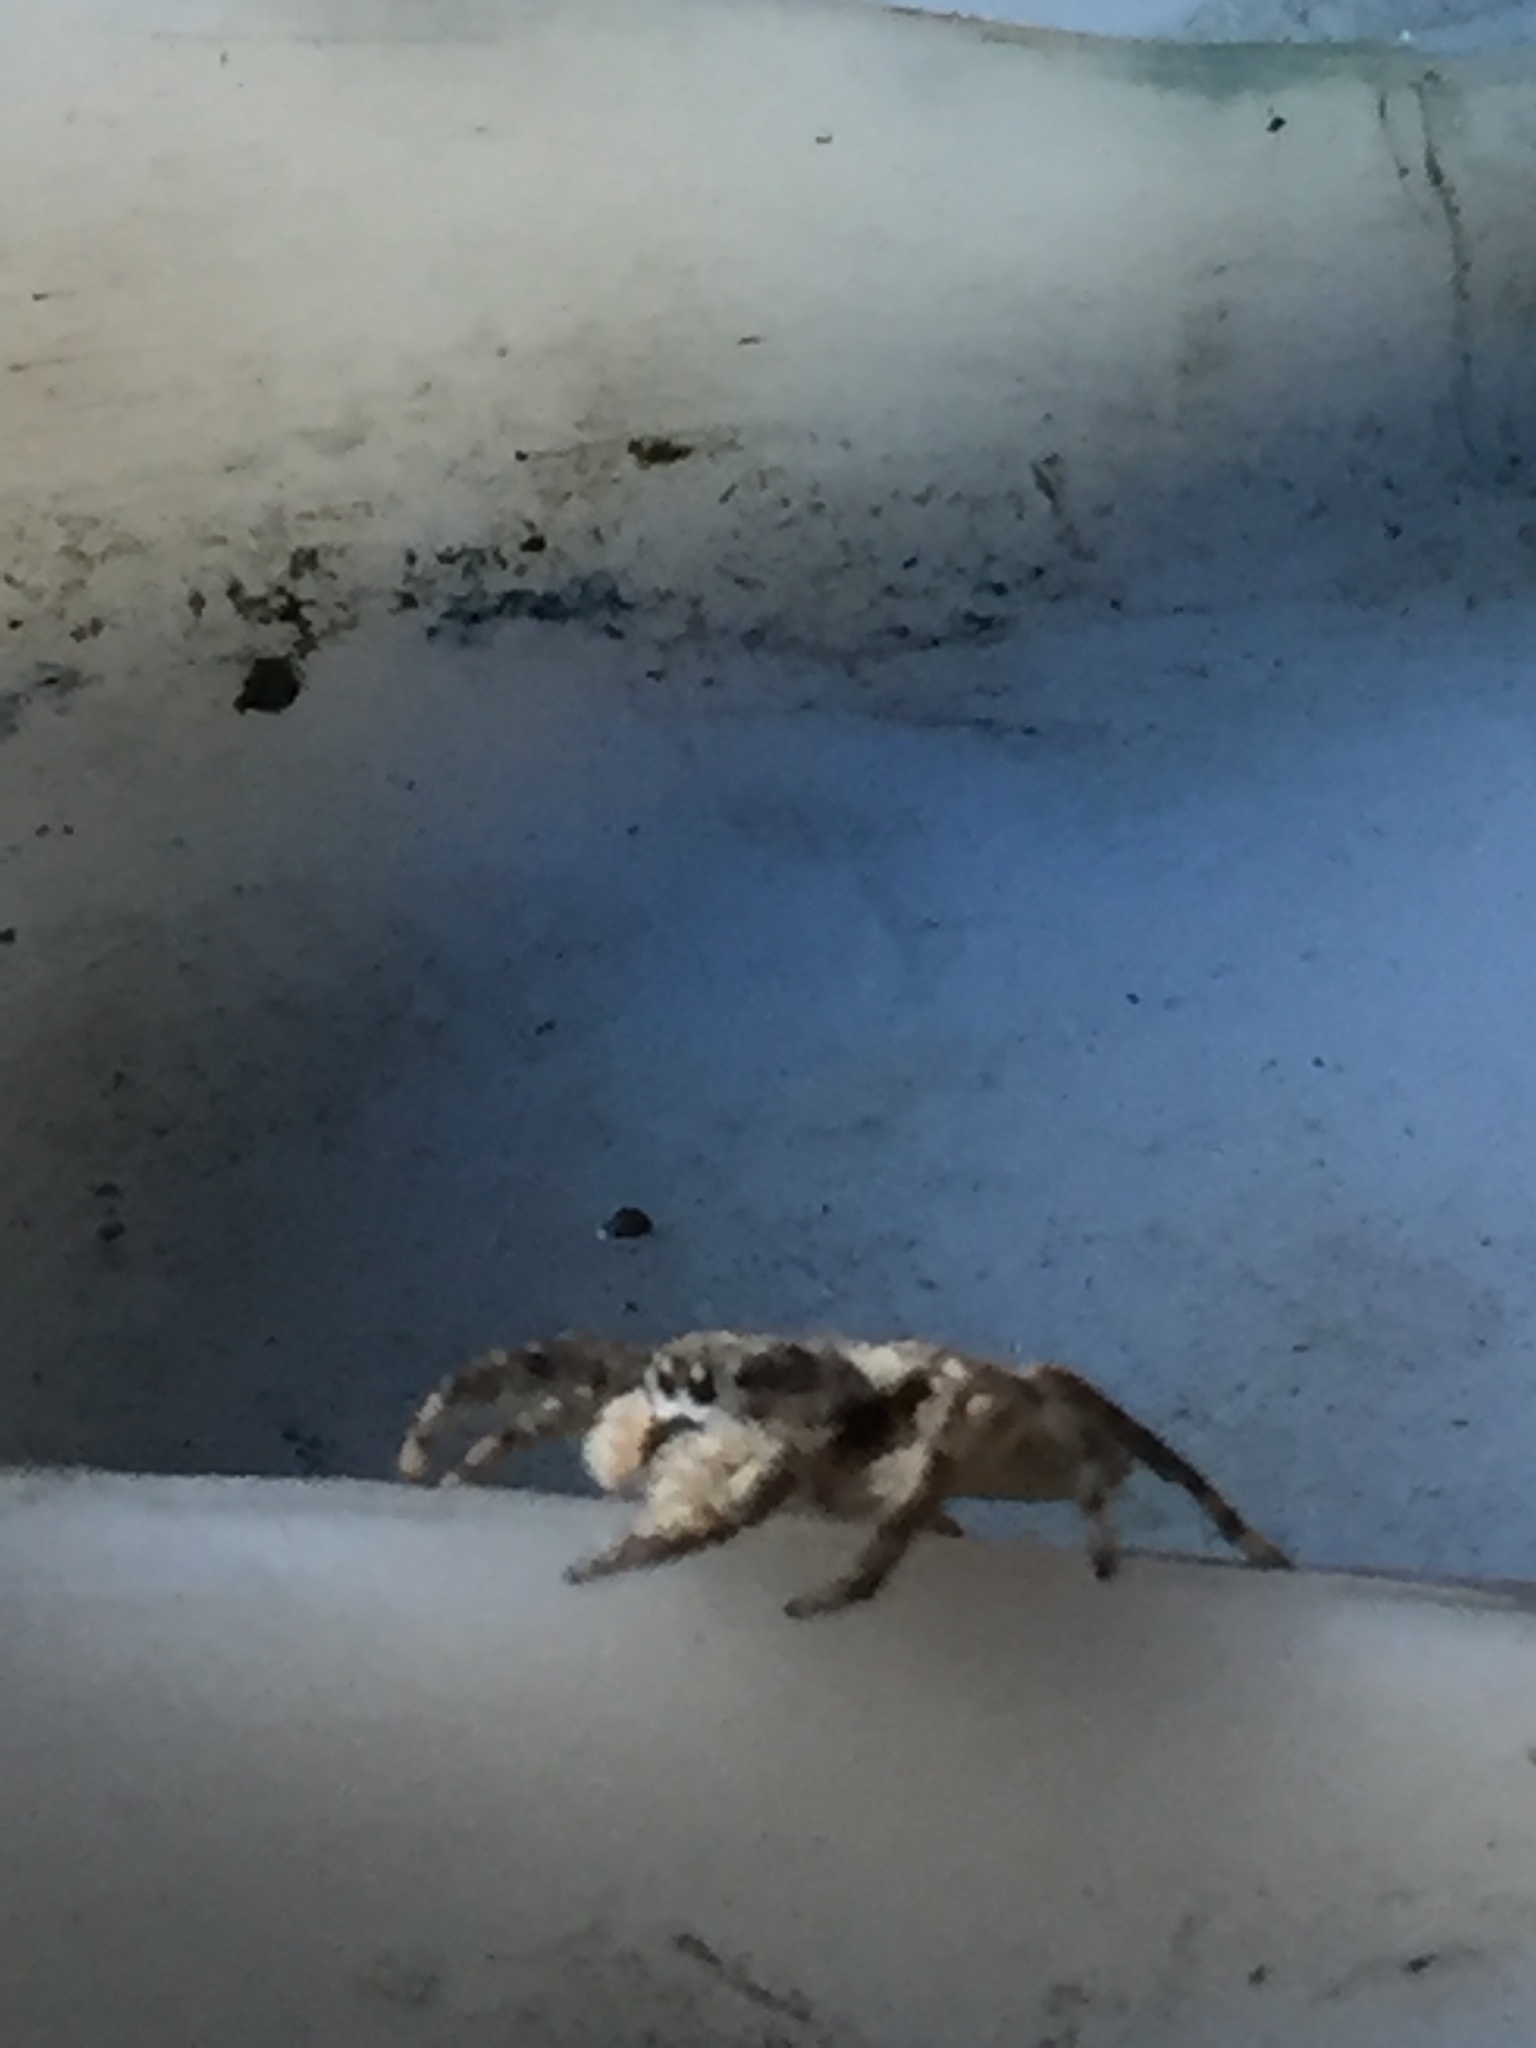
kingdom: Animalia
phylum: Arthropoda
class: Arachnida
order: Araneae
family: Salticidae
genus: Platycryptus
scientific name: Platycryptus undatus
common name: Tan jumping spider
